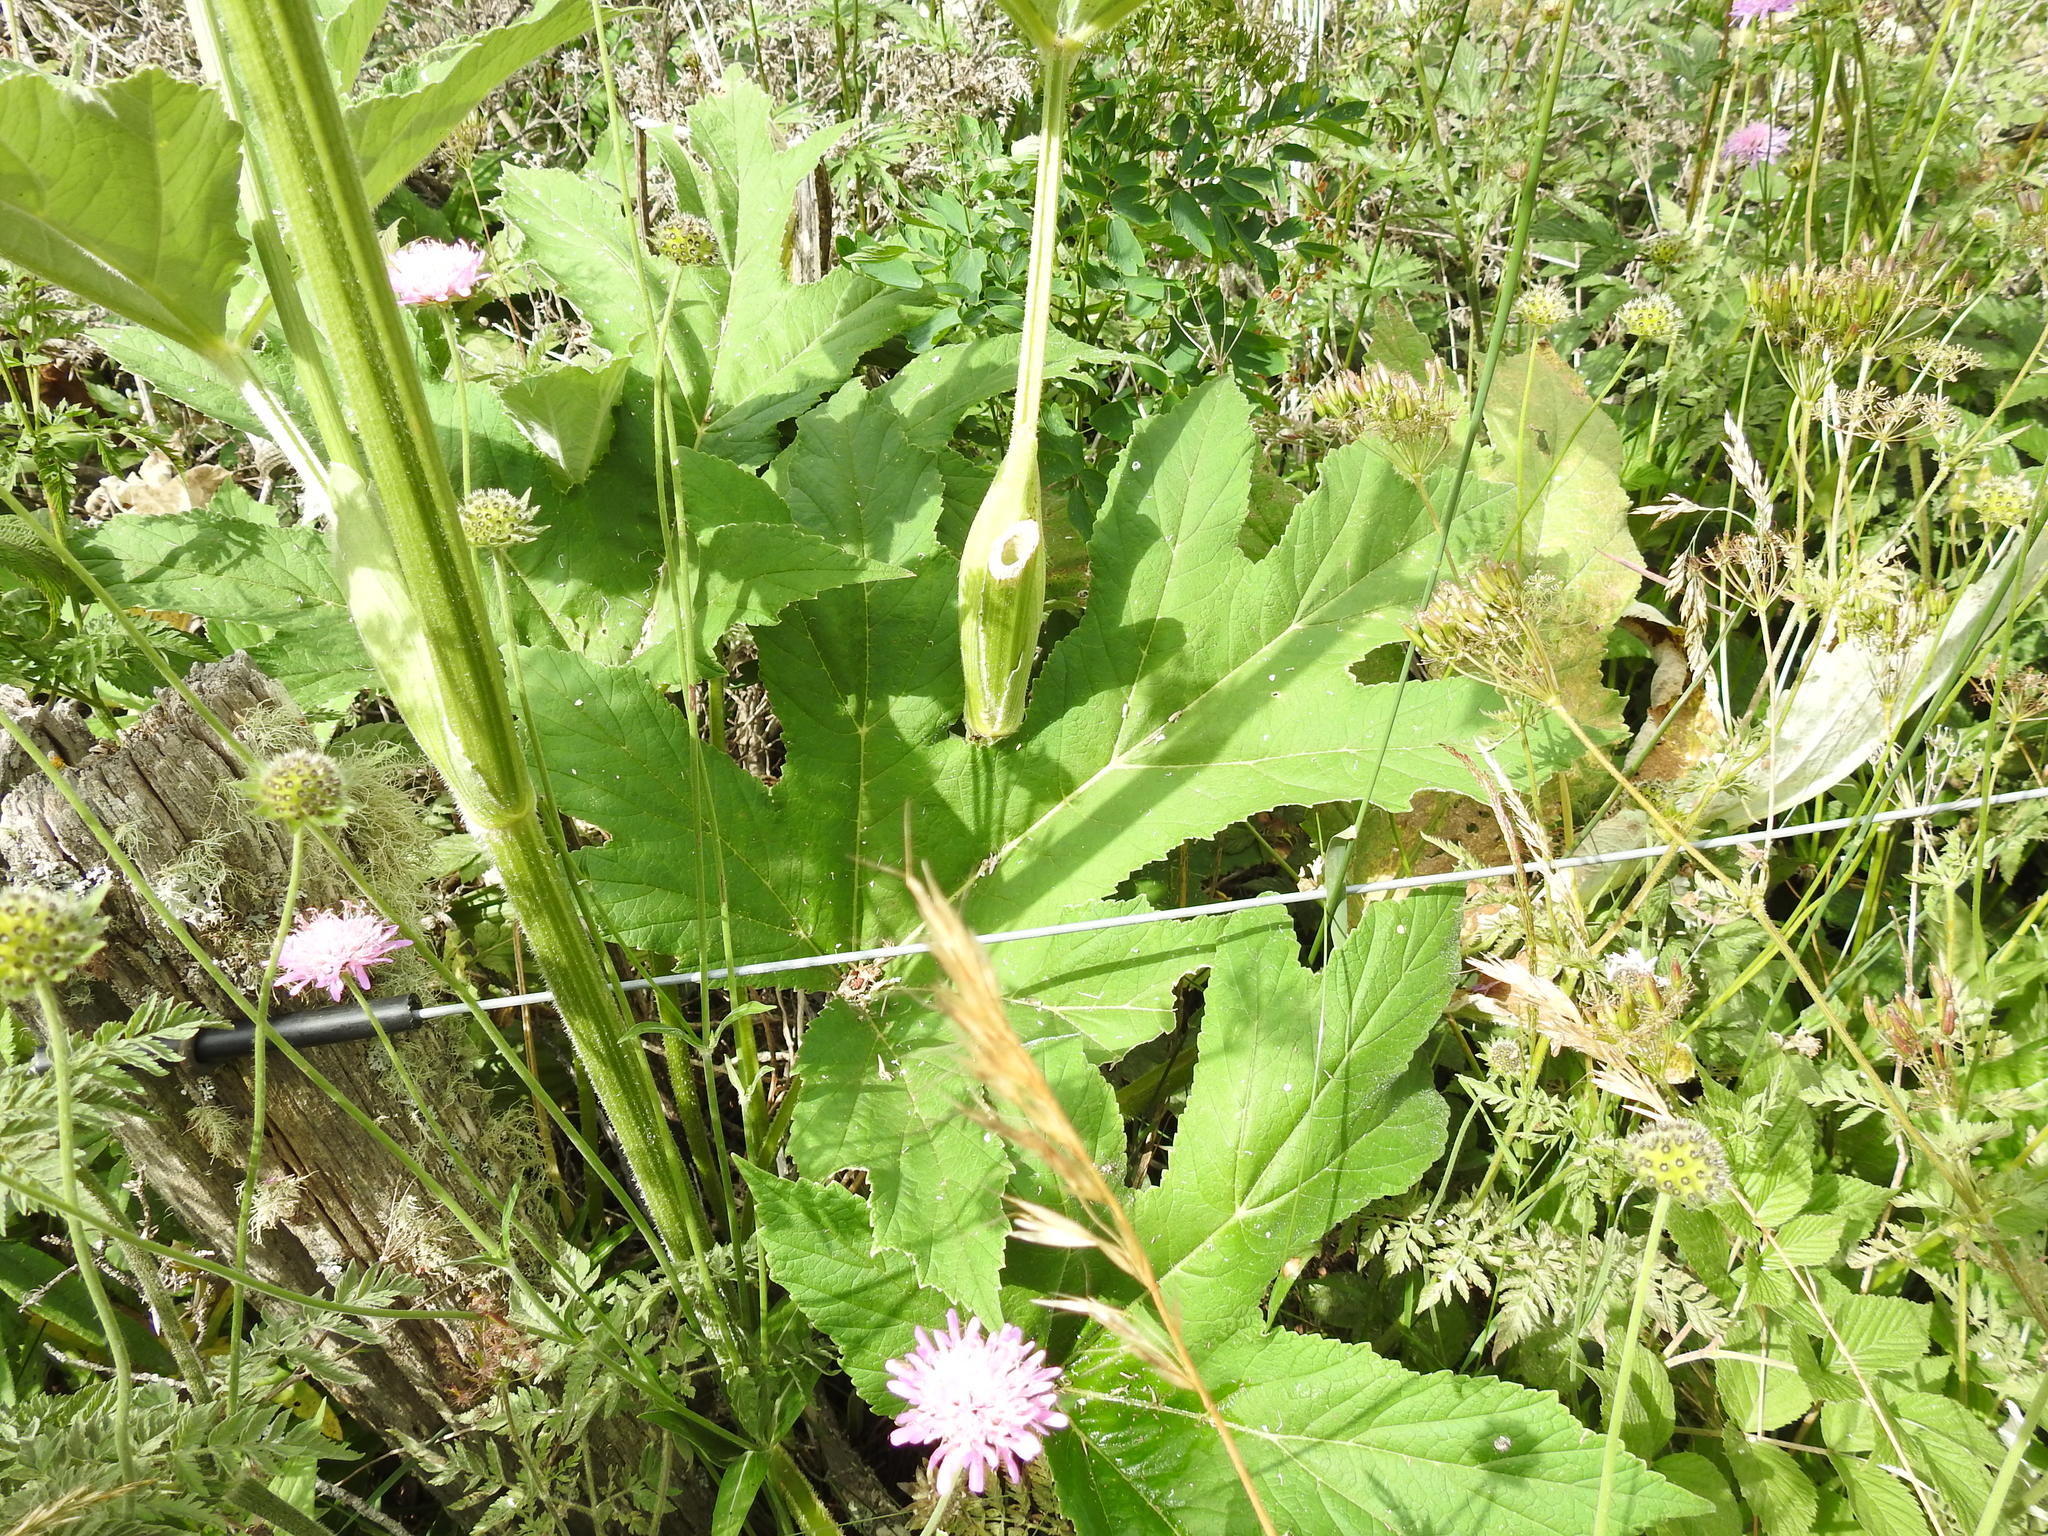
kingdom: Plantae
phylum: Tracheophyta
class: Magnoliopsida
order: Apiales
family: Apiaceae
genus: Heracleum
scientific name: Heracleum sphondylium
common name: Hogweed
